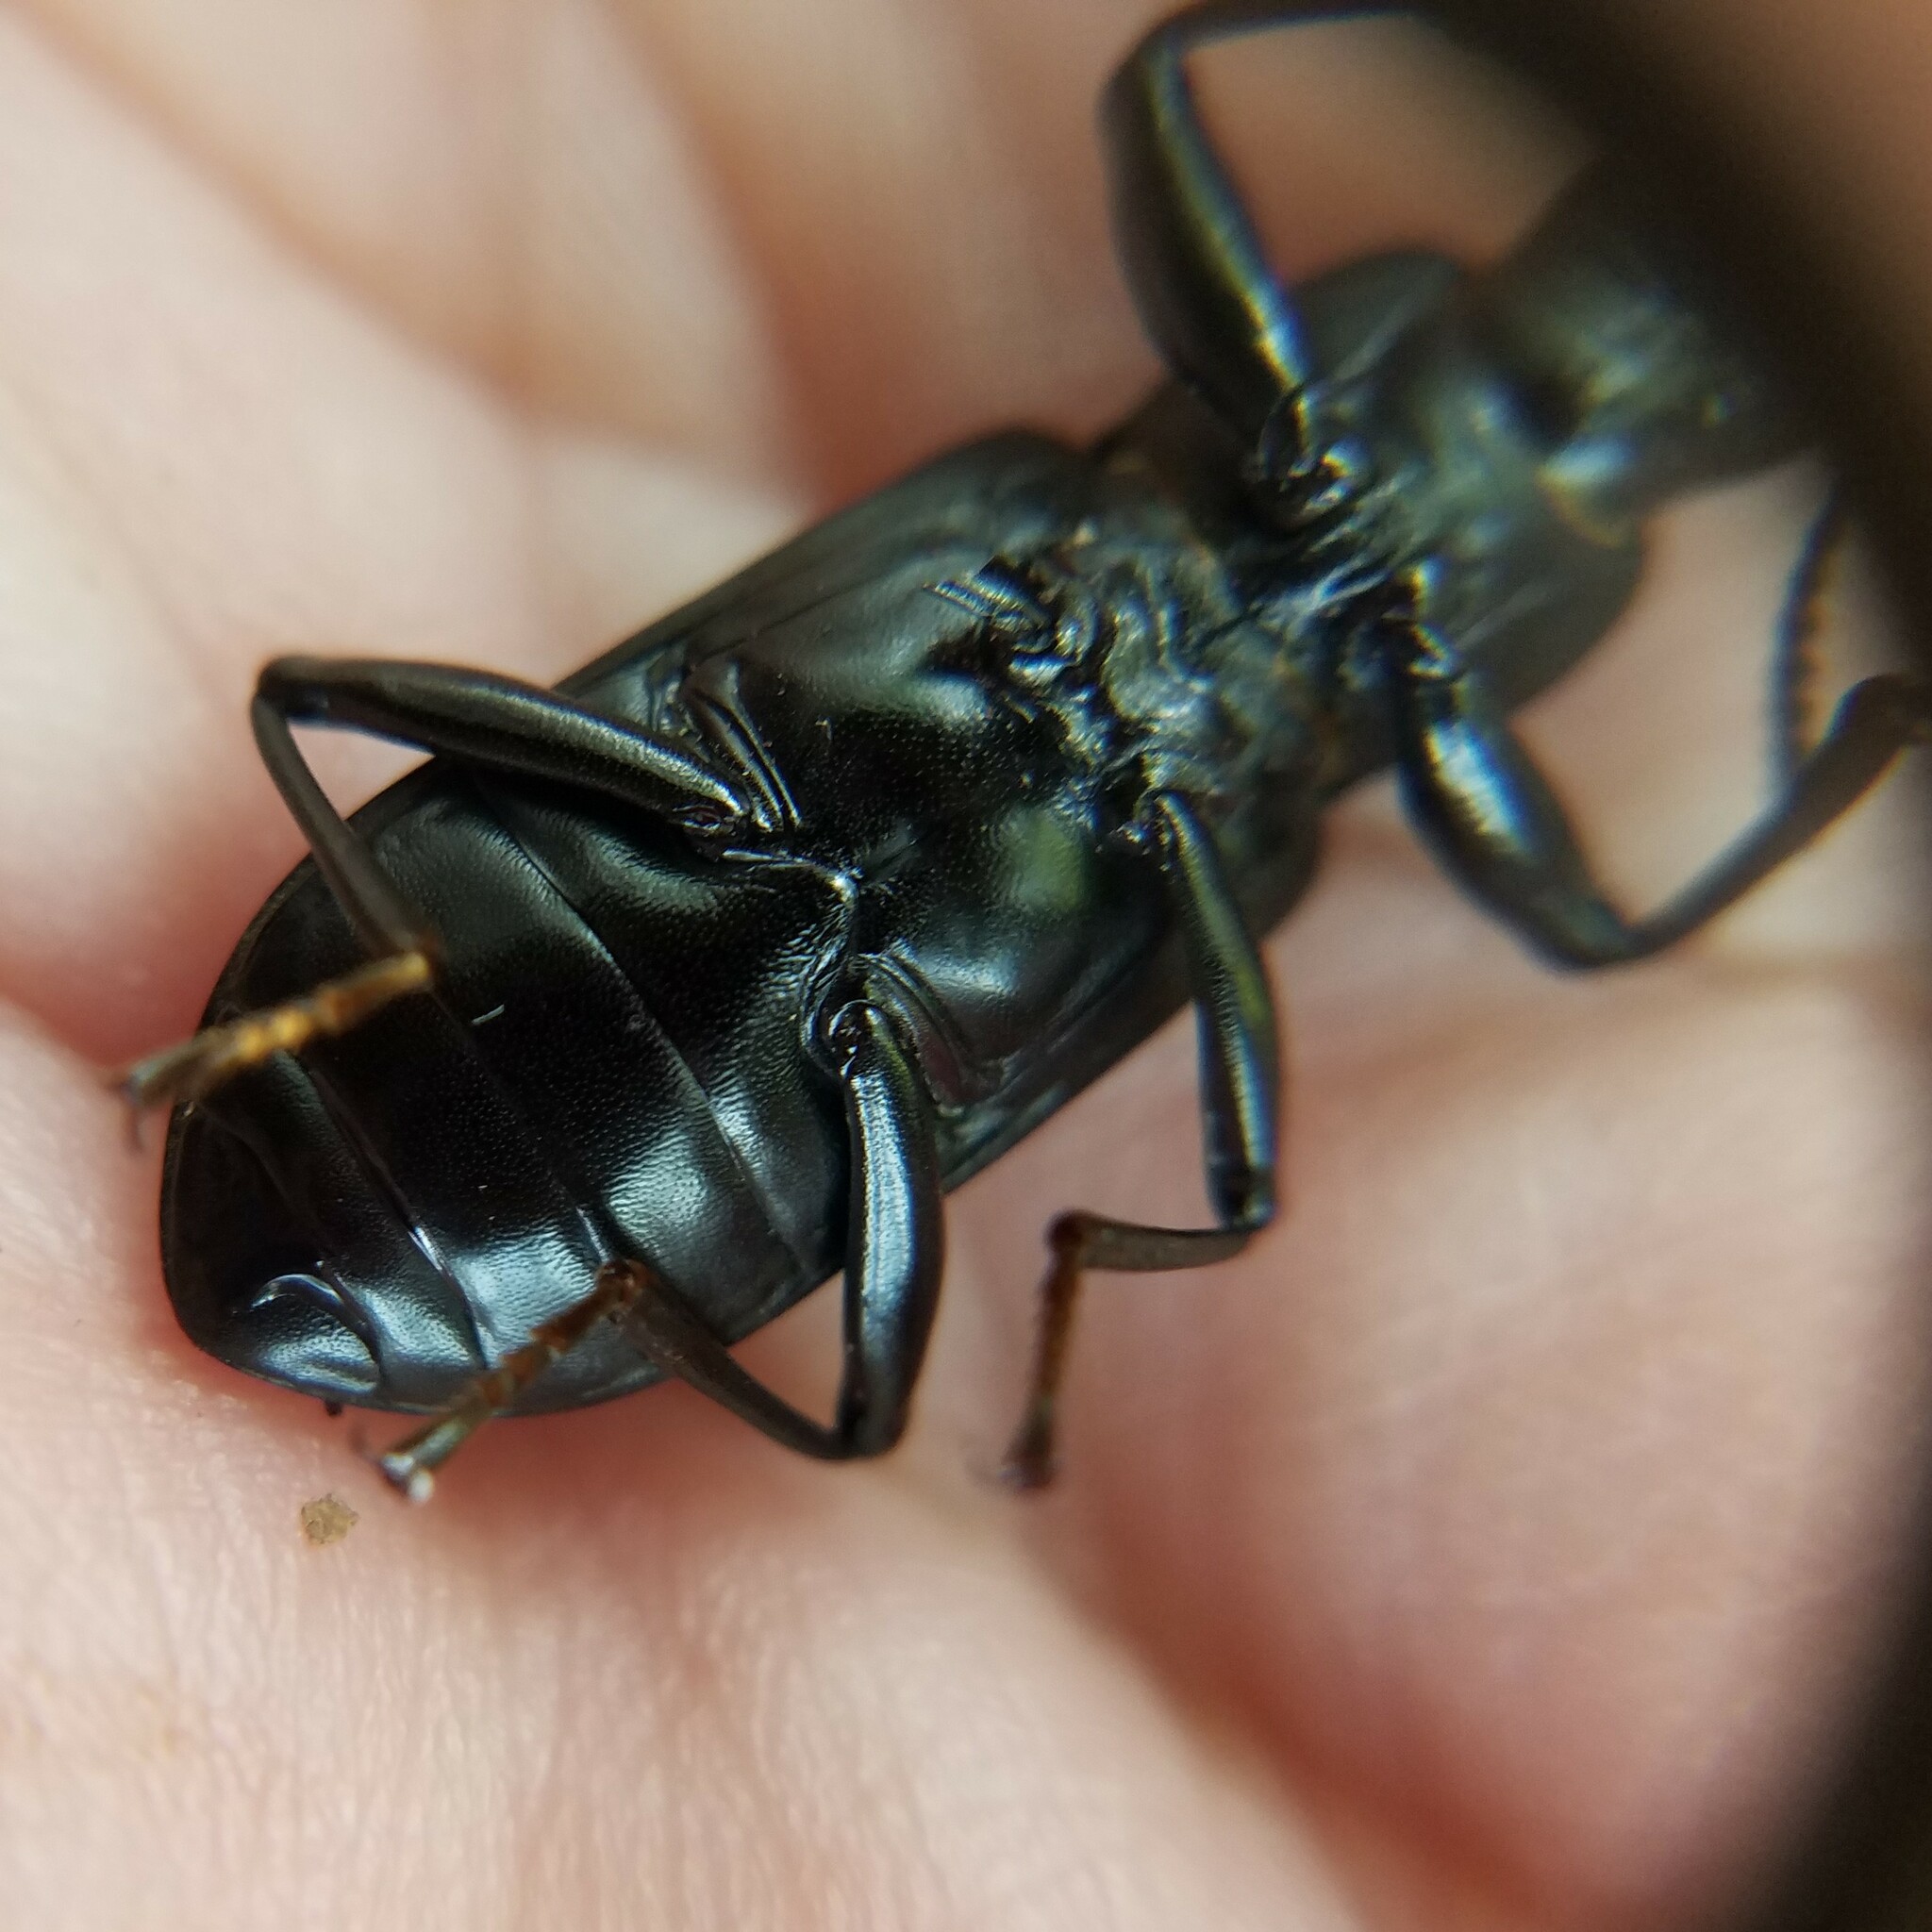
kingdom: Animalia
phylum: Arthropoda
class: Insecta
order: Coleoptera
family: Tenebrionidae
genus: Alobates
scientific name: Alobates pensylvanicus
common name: False mealworm beetle
